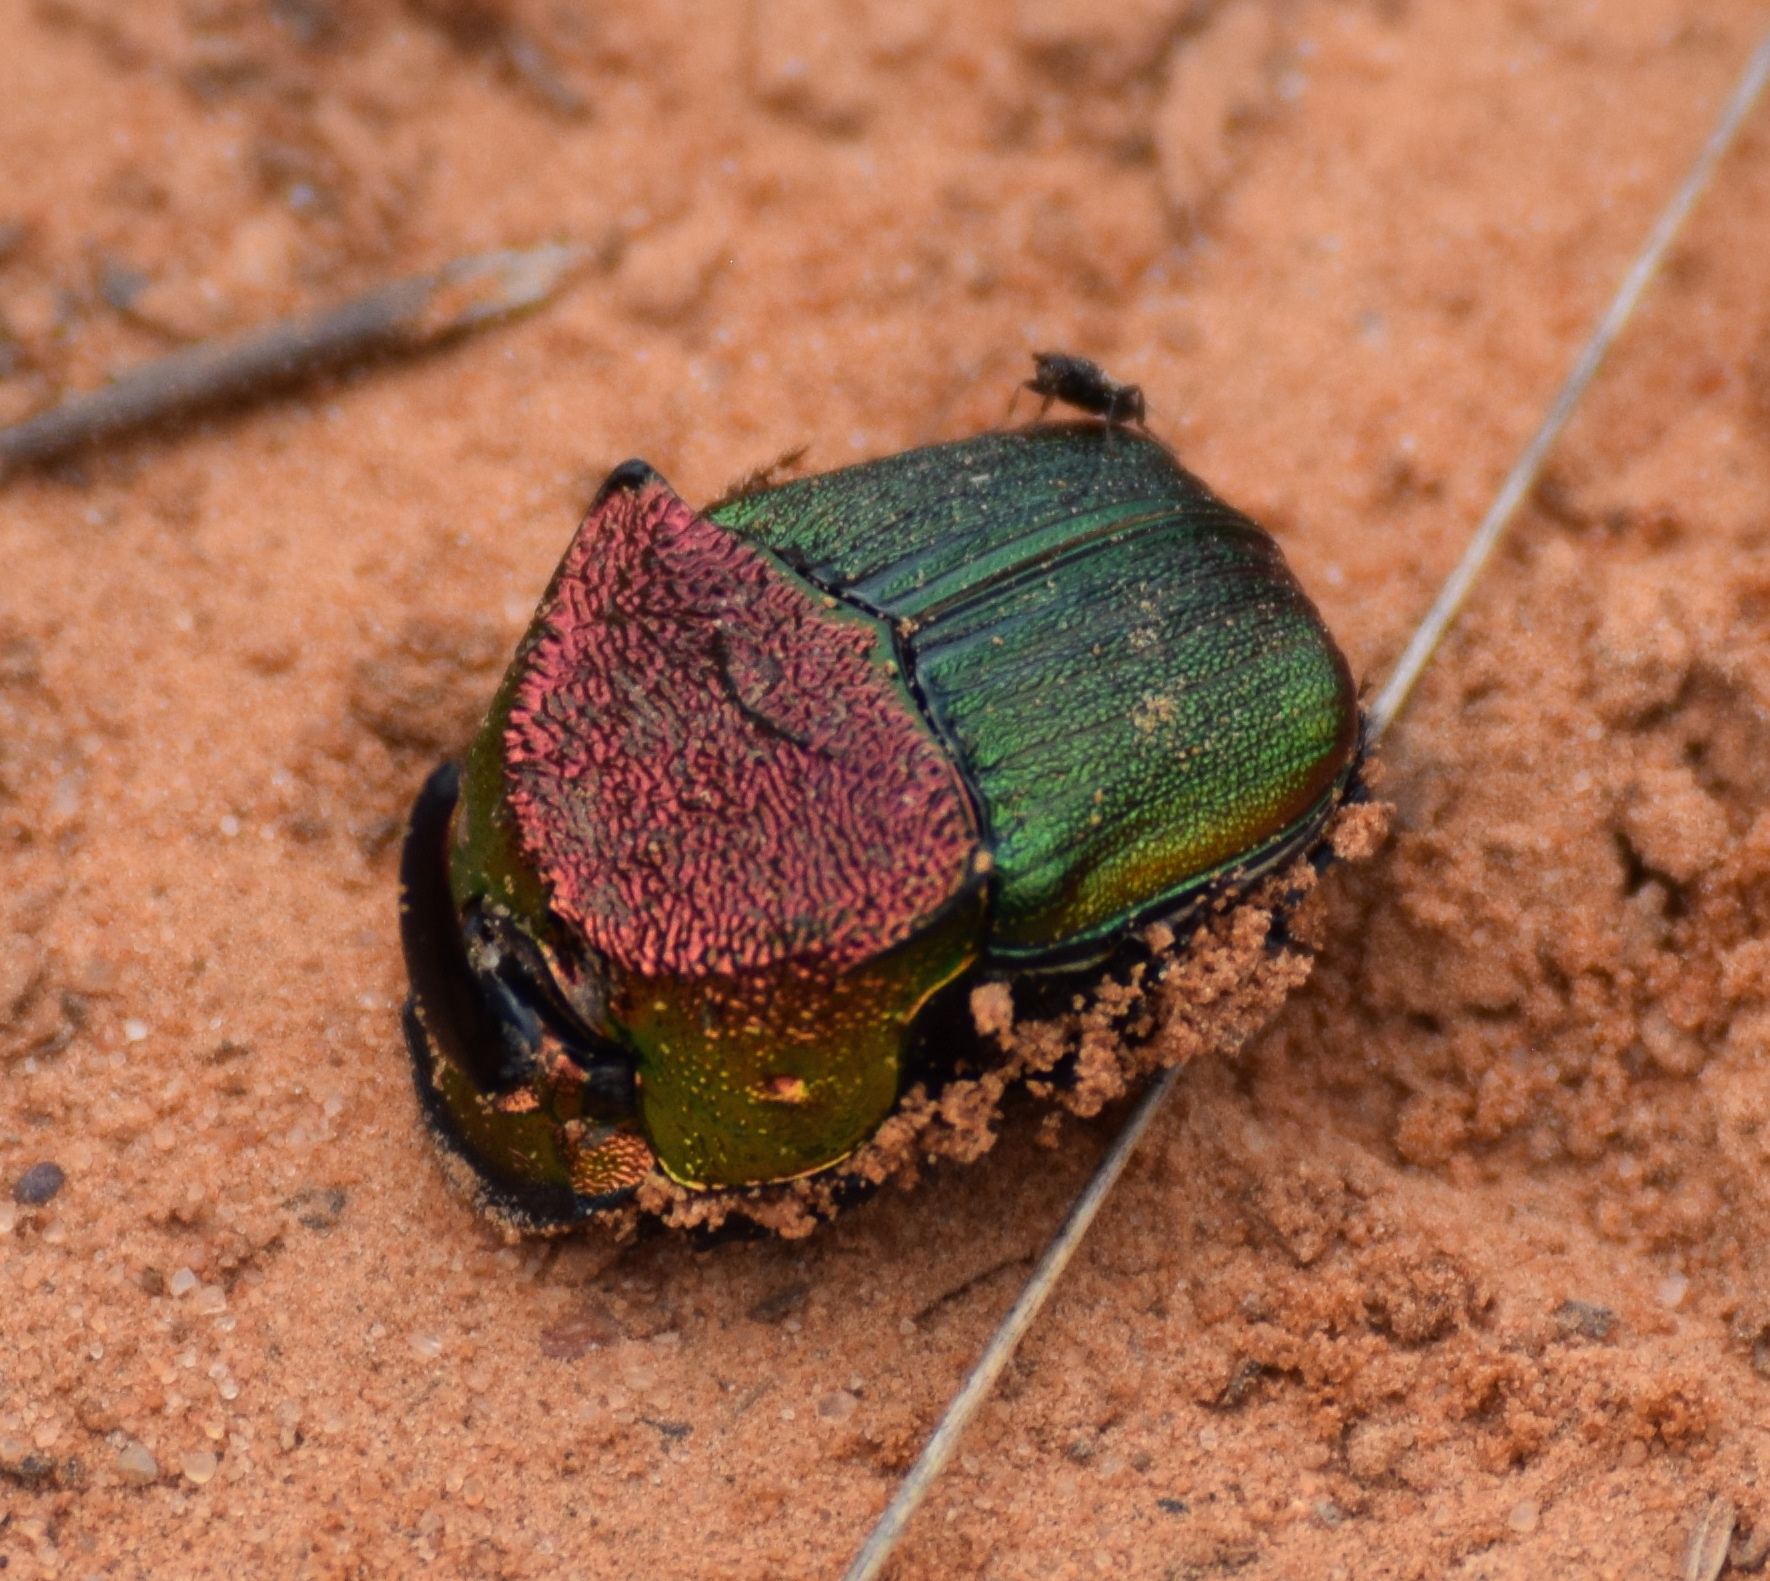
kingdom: Animalia
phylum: Arthropoda
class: Insecta
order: Coleoptera
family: Scarabaeidae
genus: Phanaeus
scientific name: Phanaeus vindex
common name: Rainbow scarab
